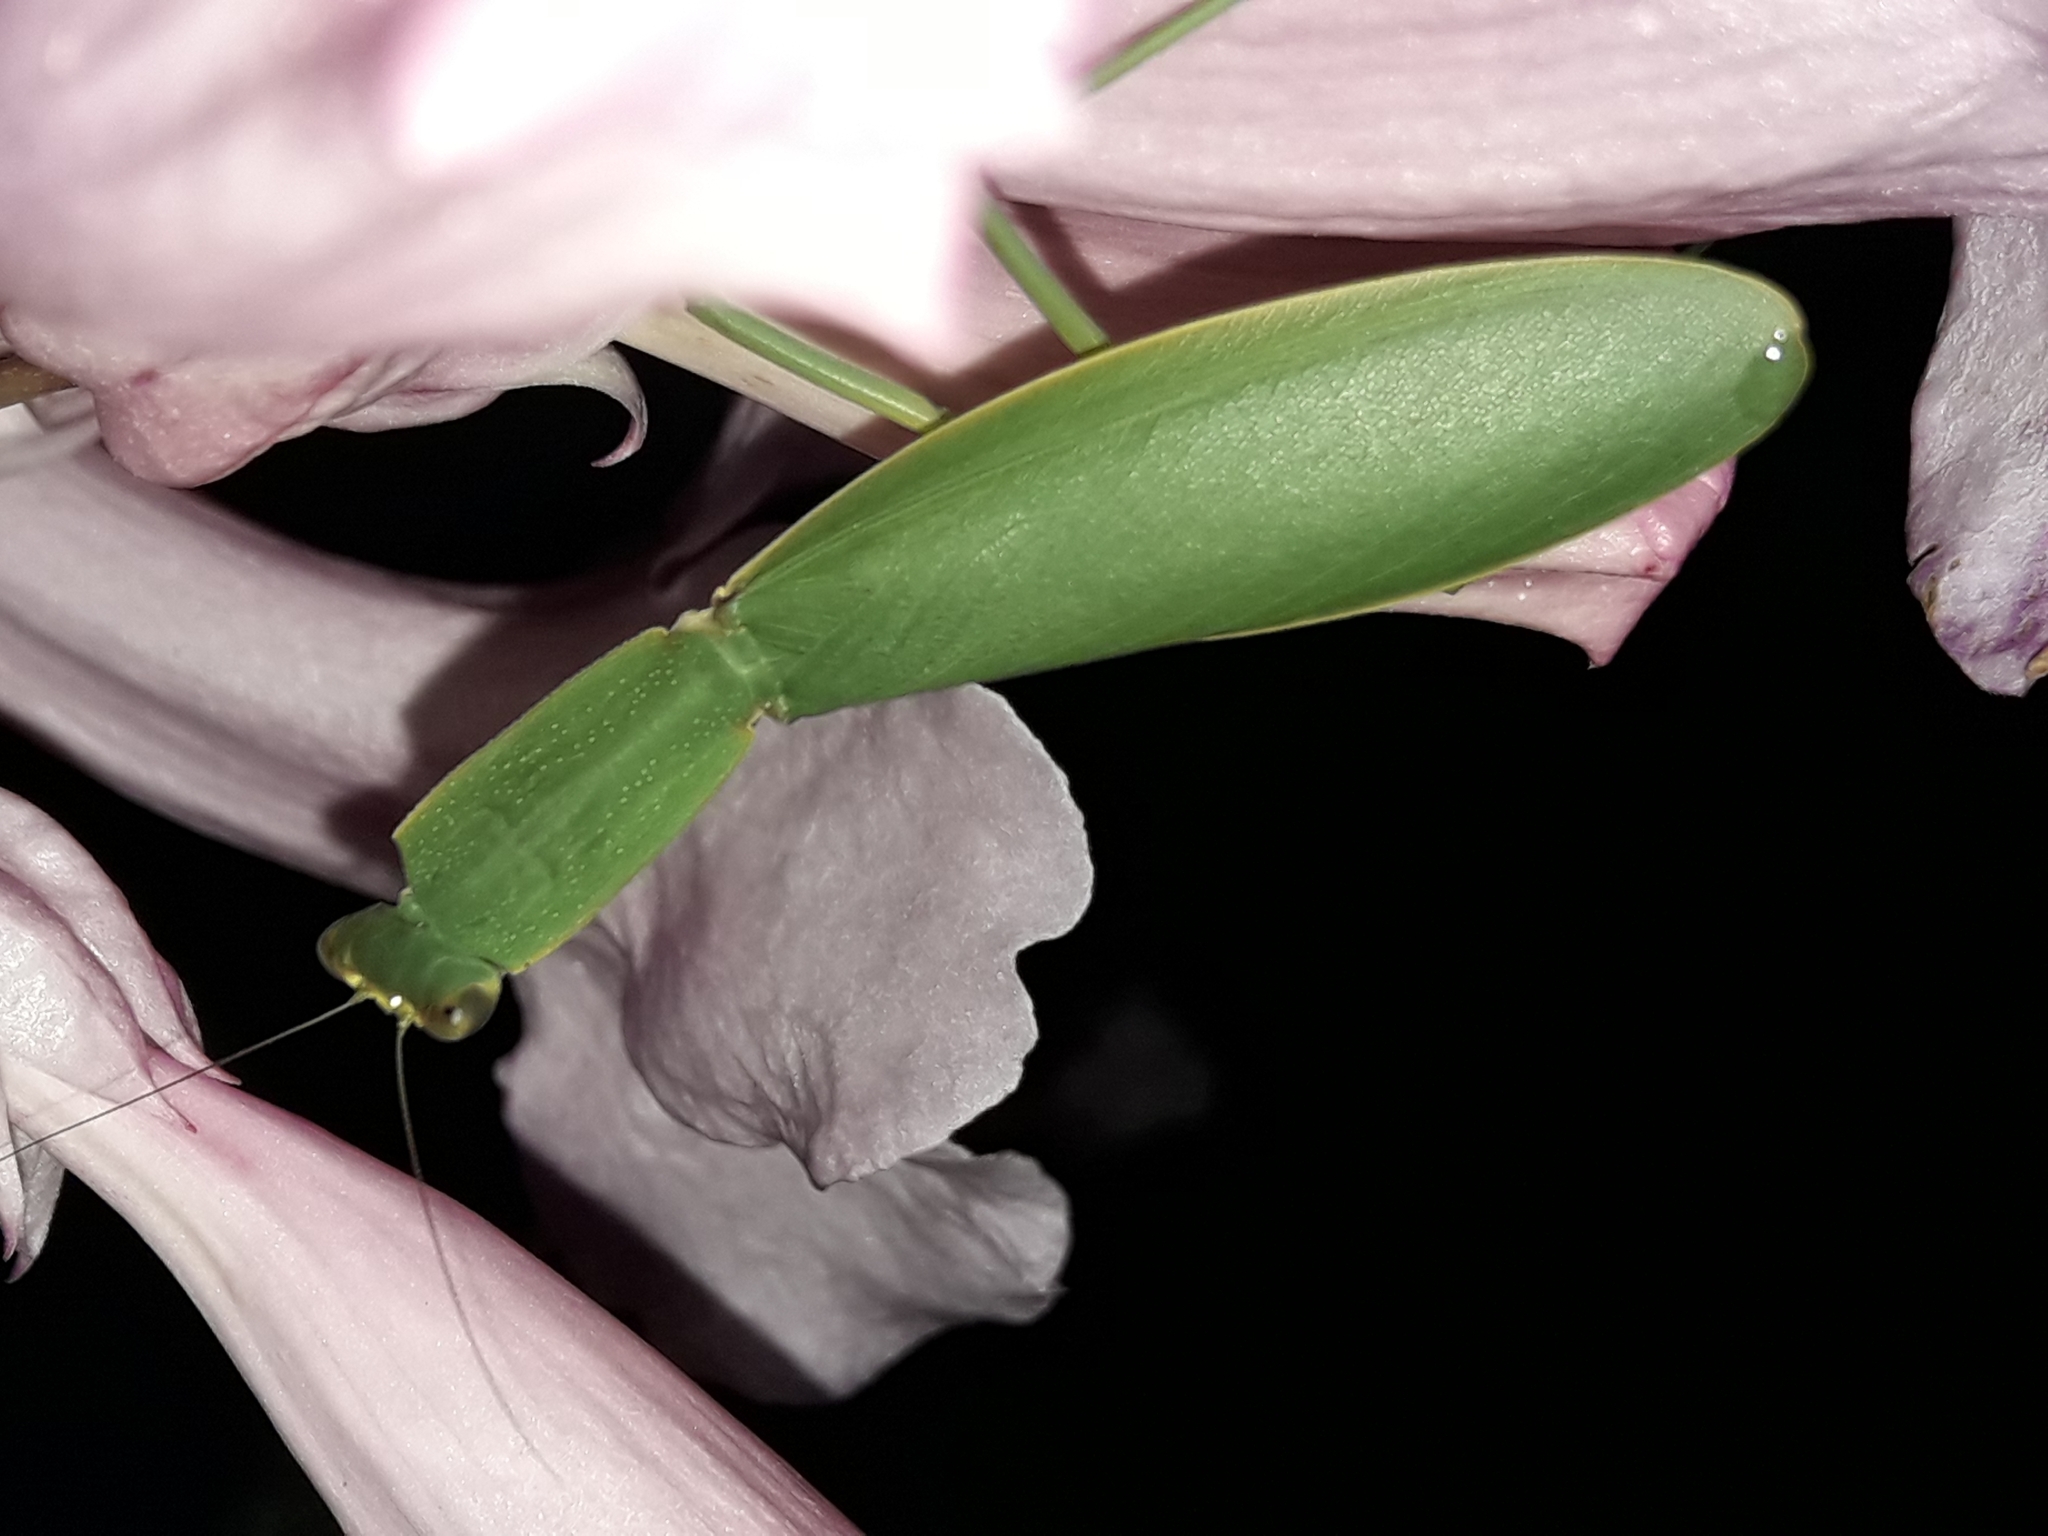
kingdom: Animalia
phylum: Arthropoda
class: Insecta
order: Mantodea
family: Mantidae
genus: Orthodera
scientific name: Orthodera novaezealandiae
